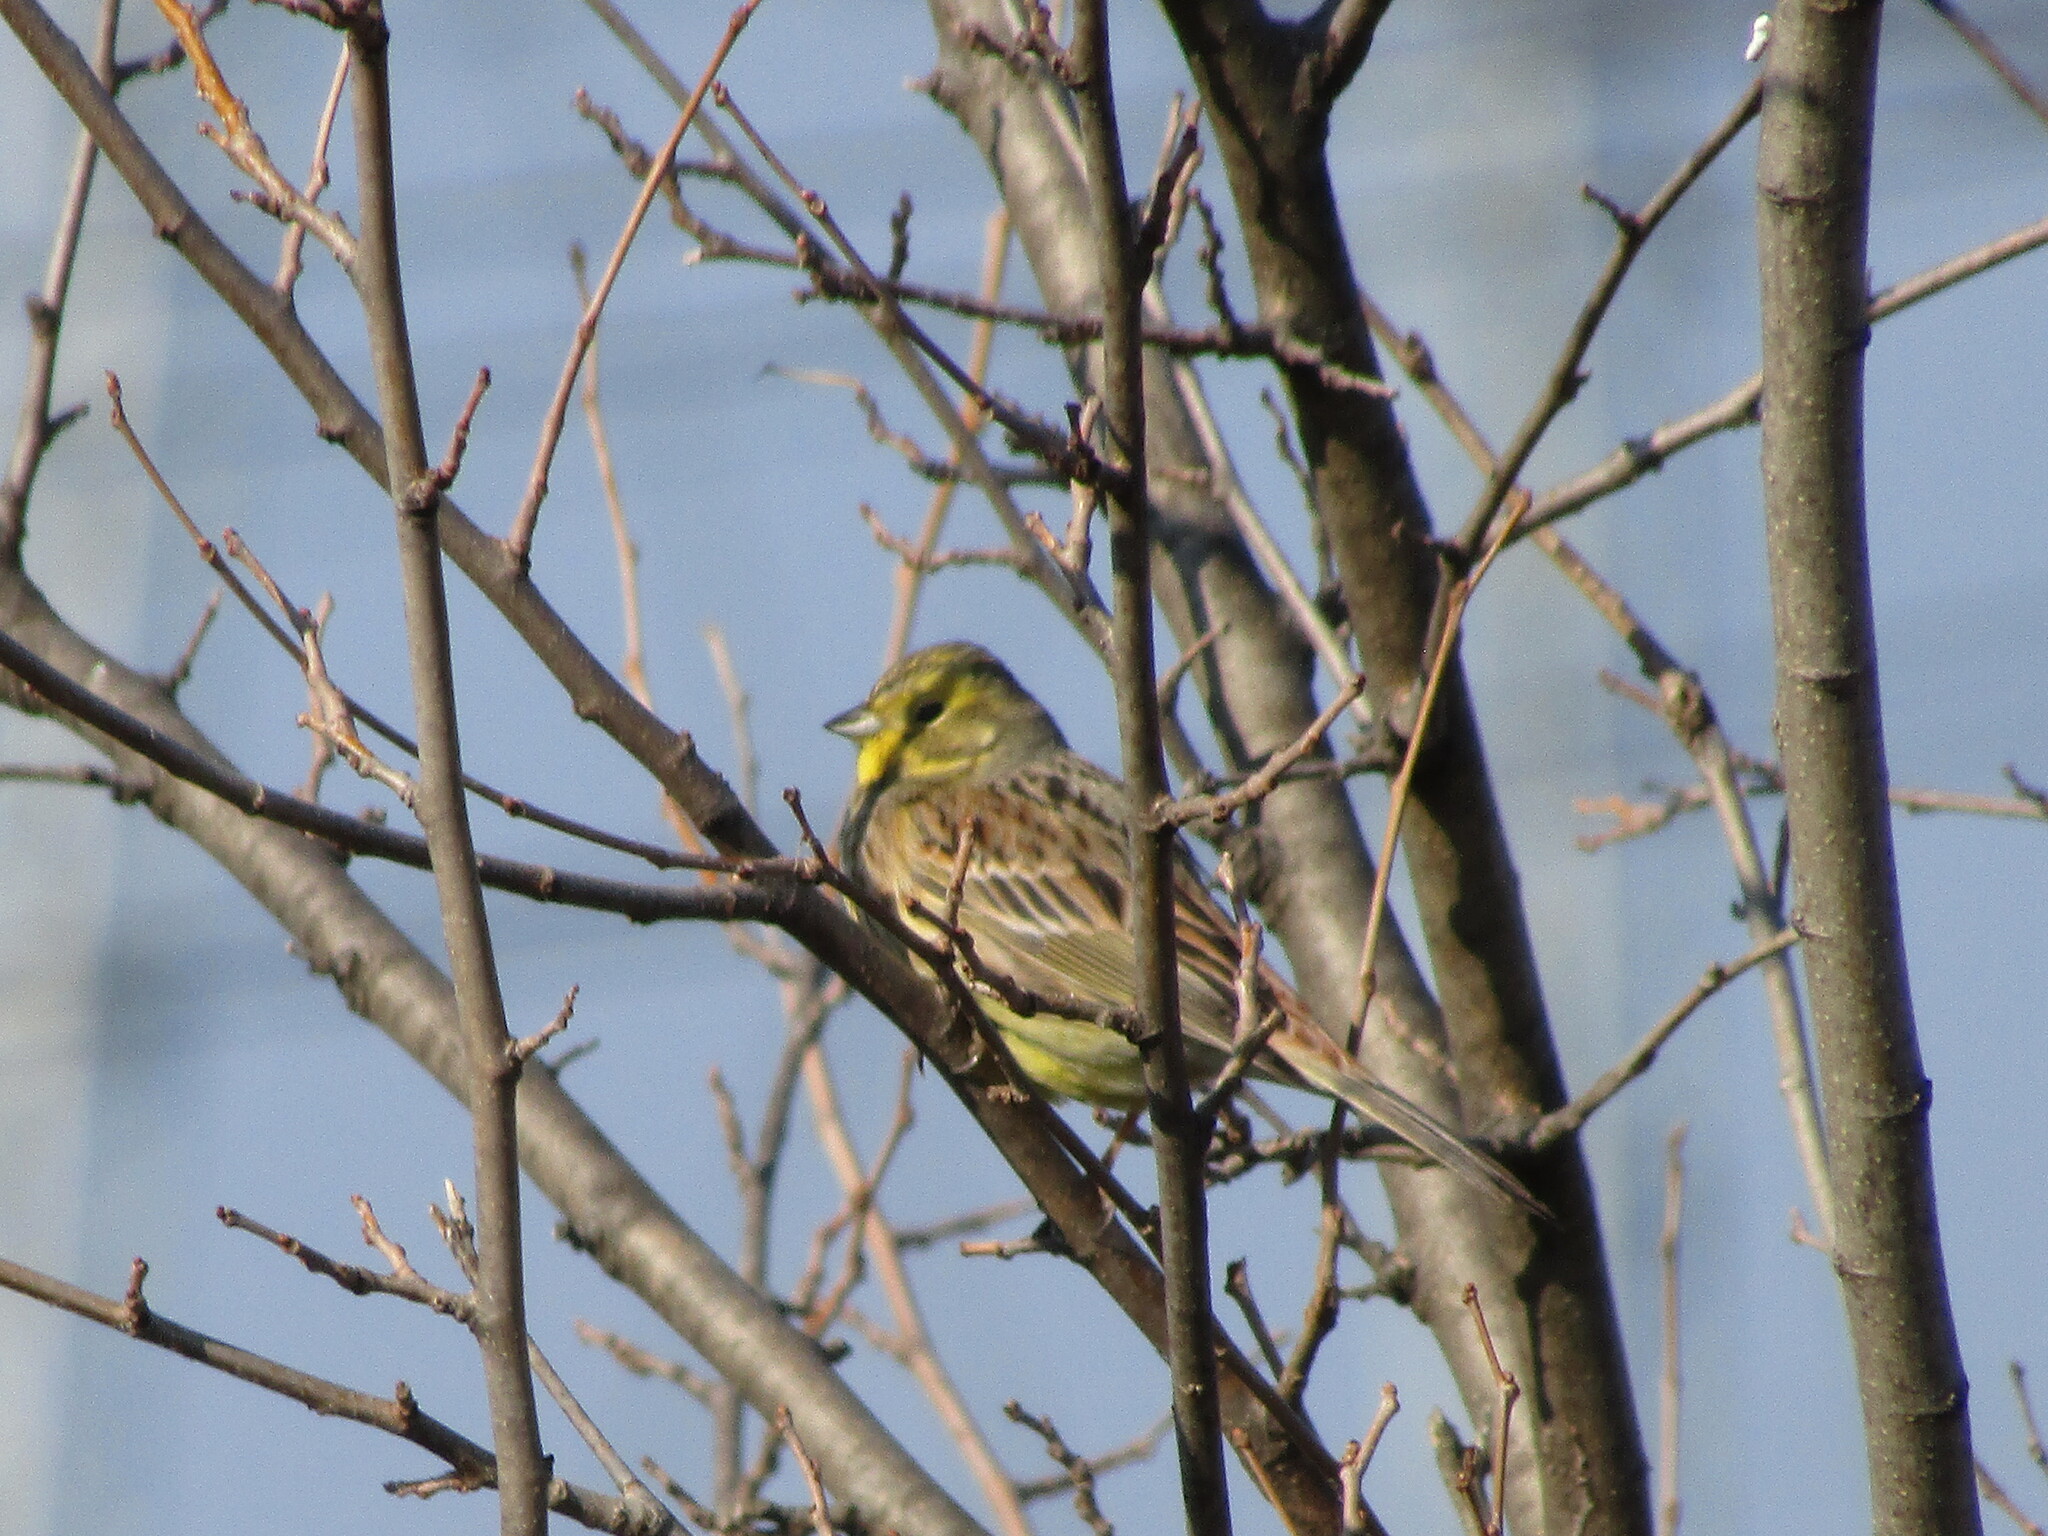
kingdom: Animalia
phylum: Chordata
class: Aves
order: Passeriformes
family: Emberizidae
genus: Emberiza
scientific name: Emberiza citrinella
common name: Yellowhammer
